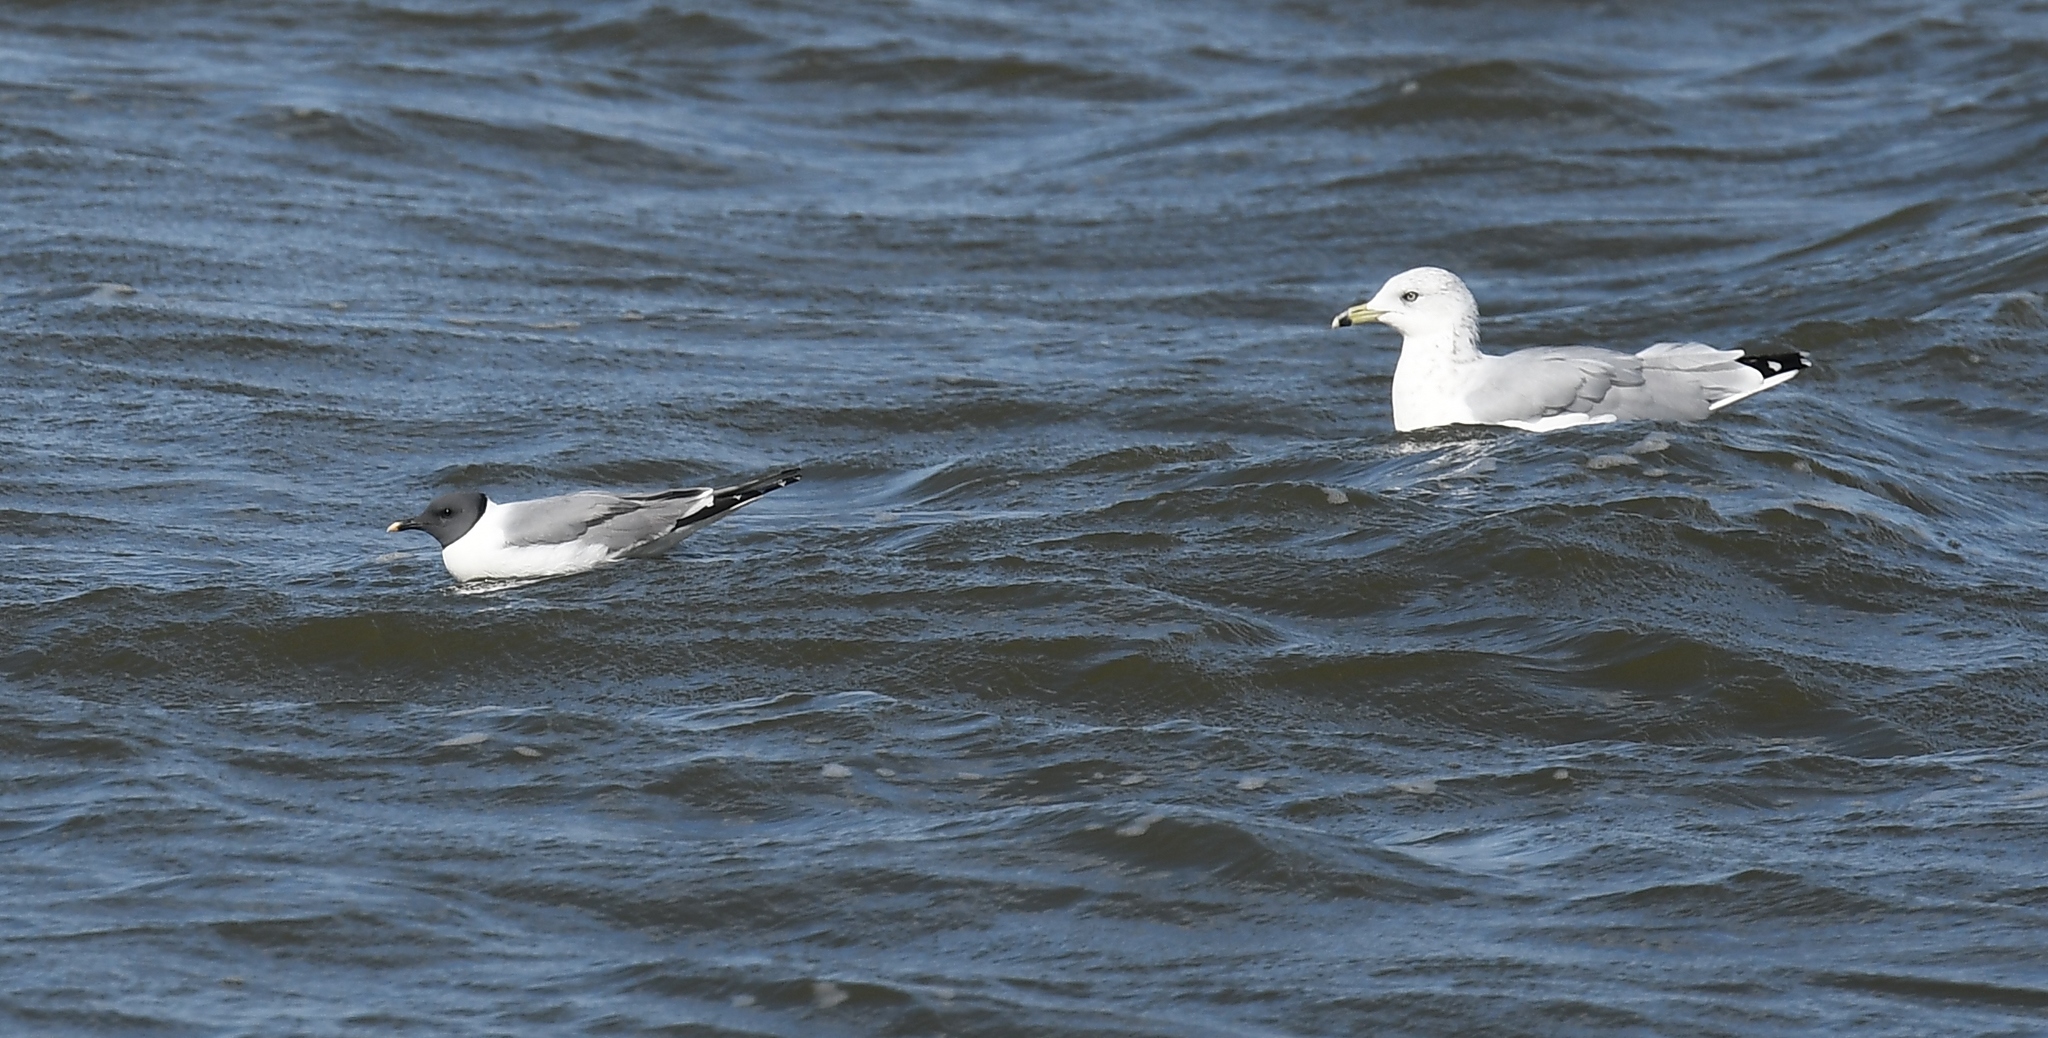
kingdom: Animalia
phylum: Chordata
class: Aves
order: Charadriiformes
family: Laridae
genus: Xema
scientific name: Xema sabini
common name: Sabine's gull
